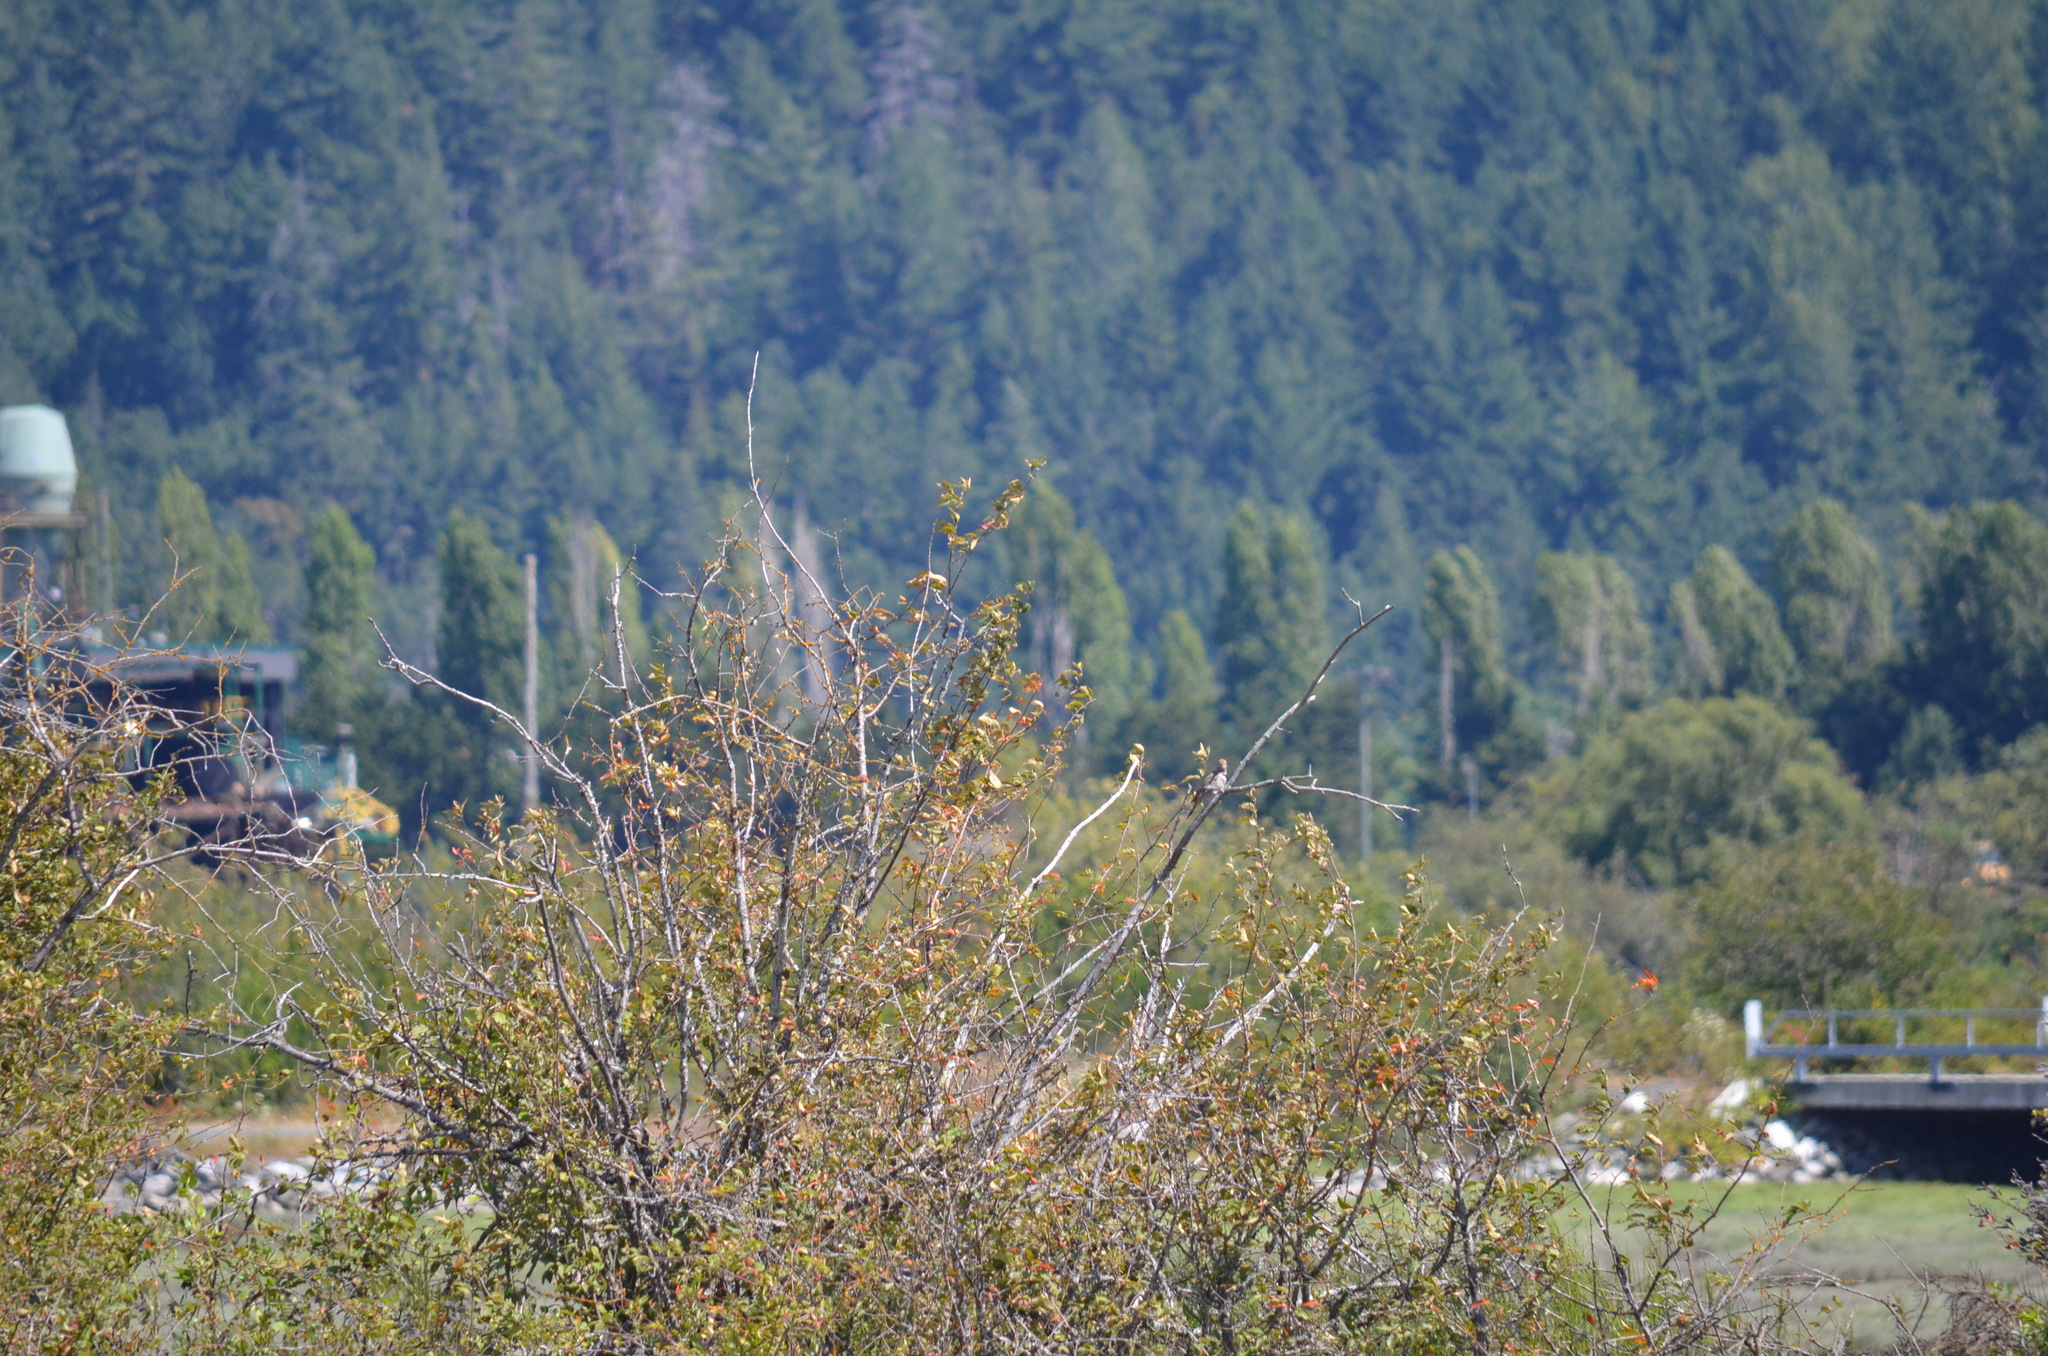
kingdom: Animalia
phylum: Chordata
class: Aves
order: Piciformes
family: Picidae
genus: Colaptes
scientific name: Colaptes auratus
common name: Northern flicker
